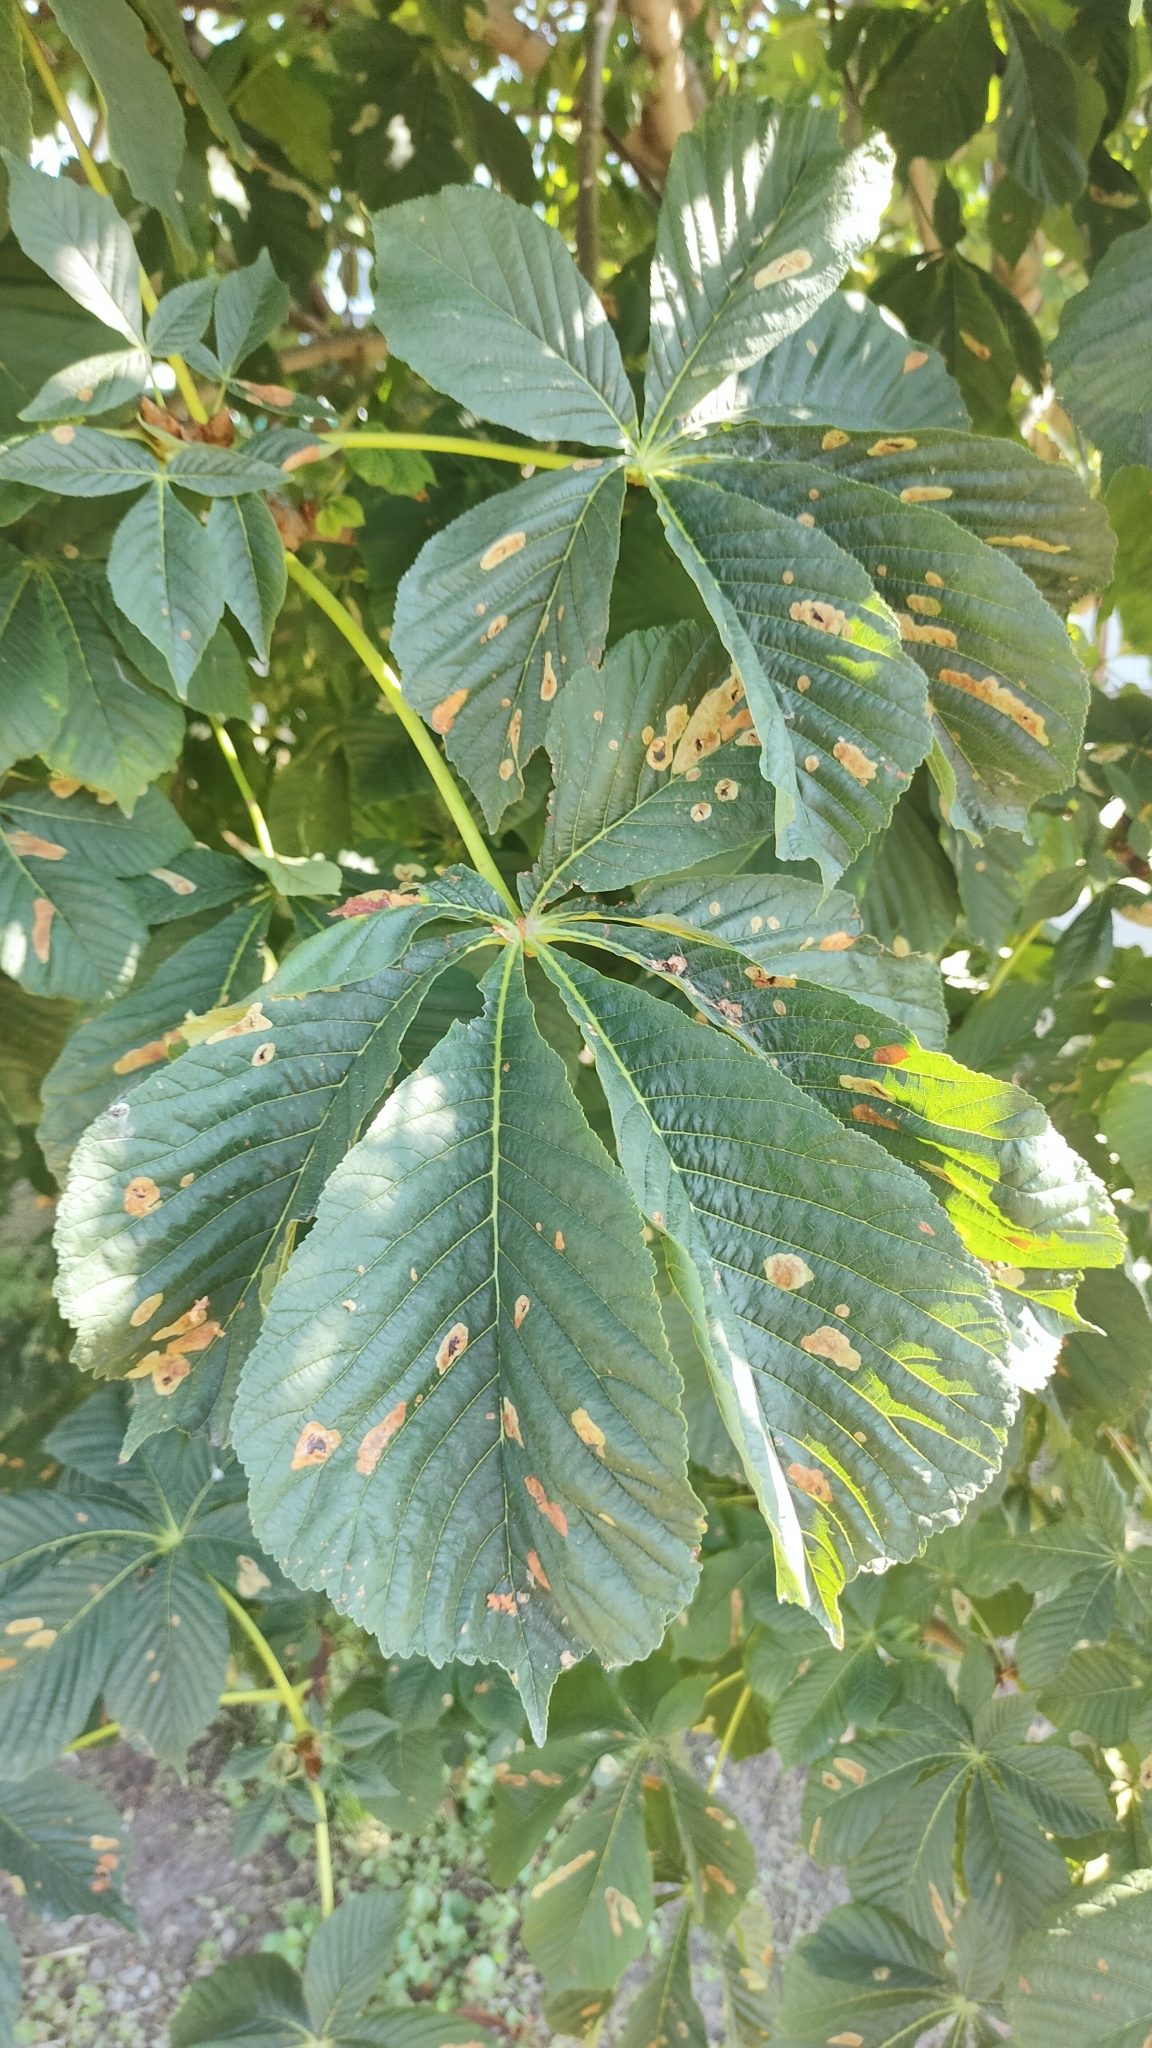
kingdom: Plantae
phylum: Tracheophyta
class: Magnoliopsida
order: Sapindales
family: Sapindaceae
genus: Aesculus
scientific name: Aesculus hippocastanum
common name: Horse-chestnut
